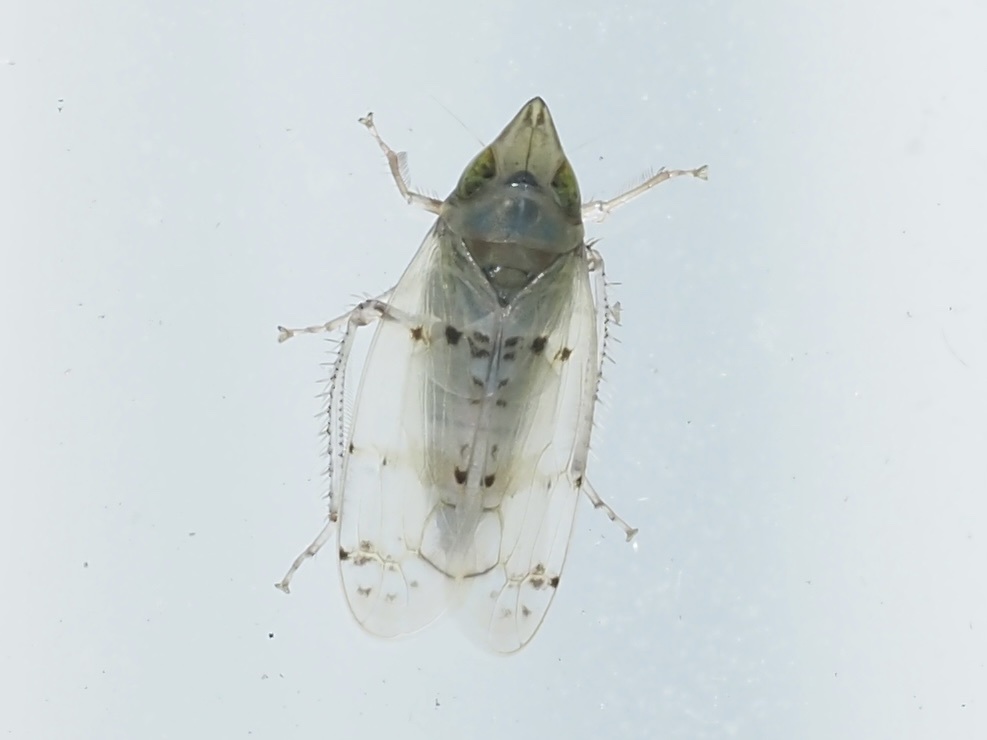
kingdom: Animalia
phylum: Arthropoda
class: Insecta
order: Hemiptera
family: Cicadellidae
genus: Japananus
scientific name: Japananus hyalinus
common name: The japanese maple leafhopper
